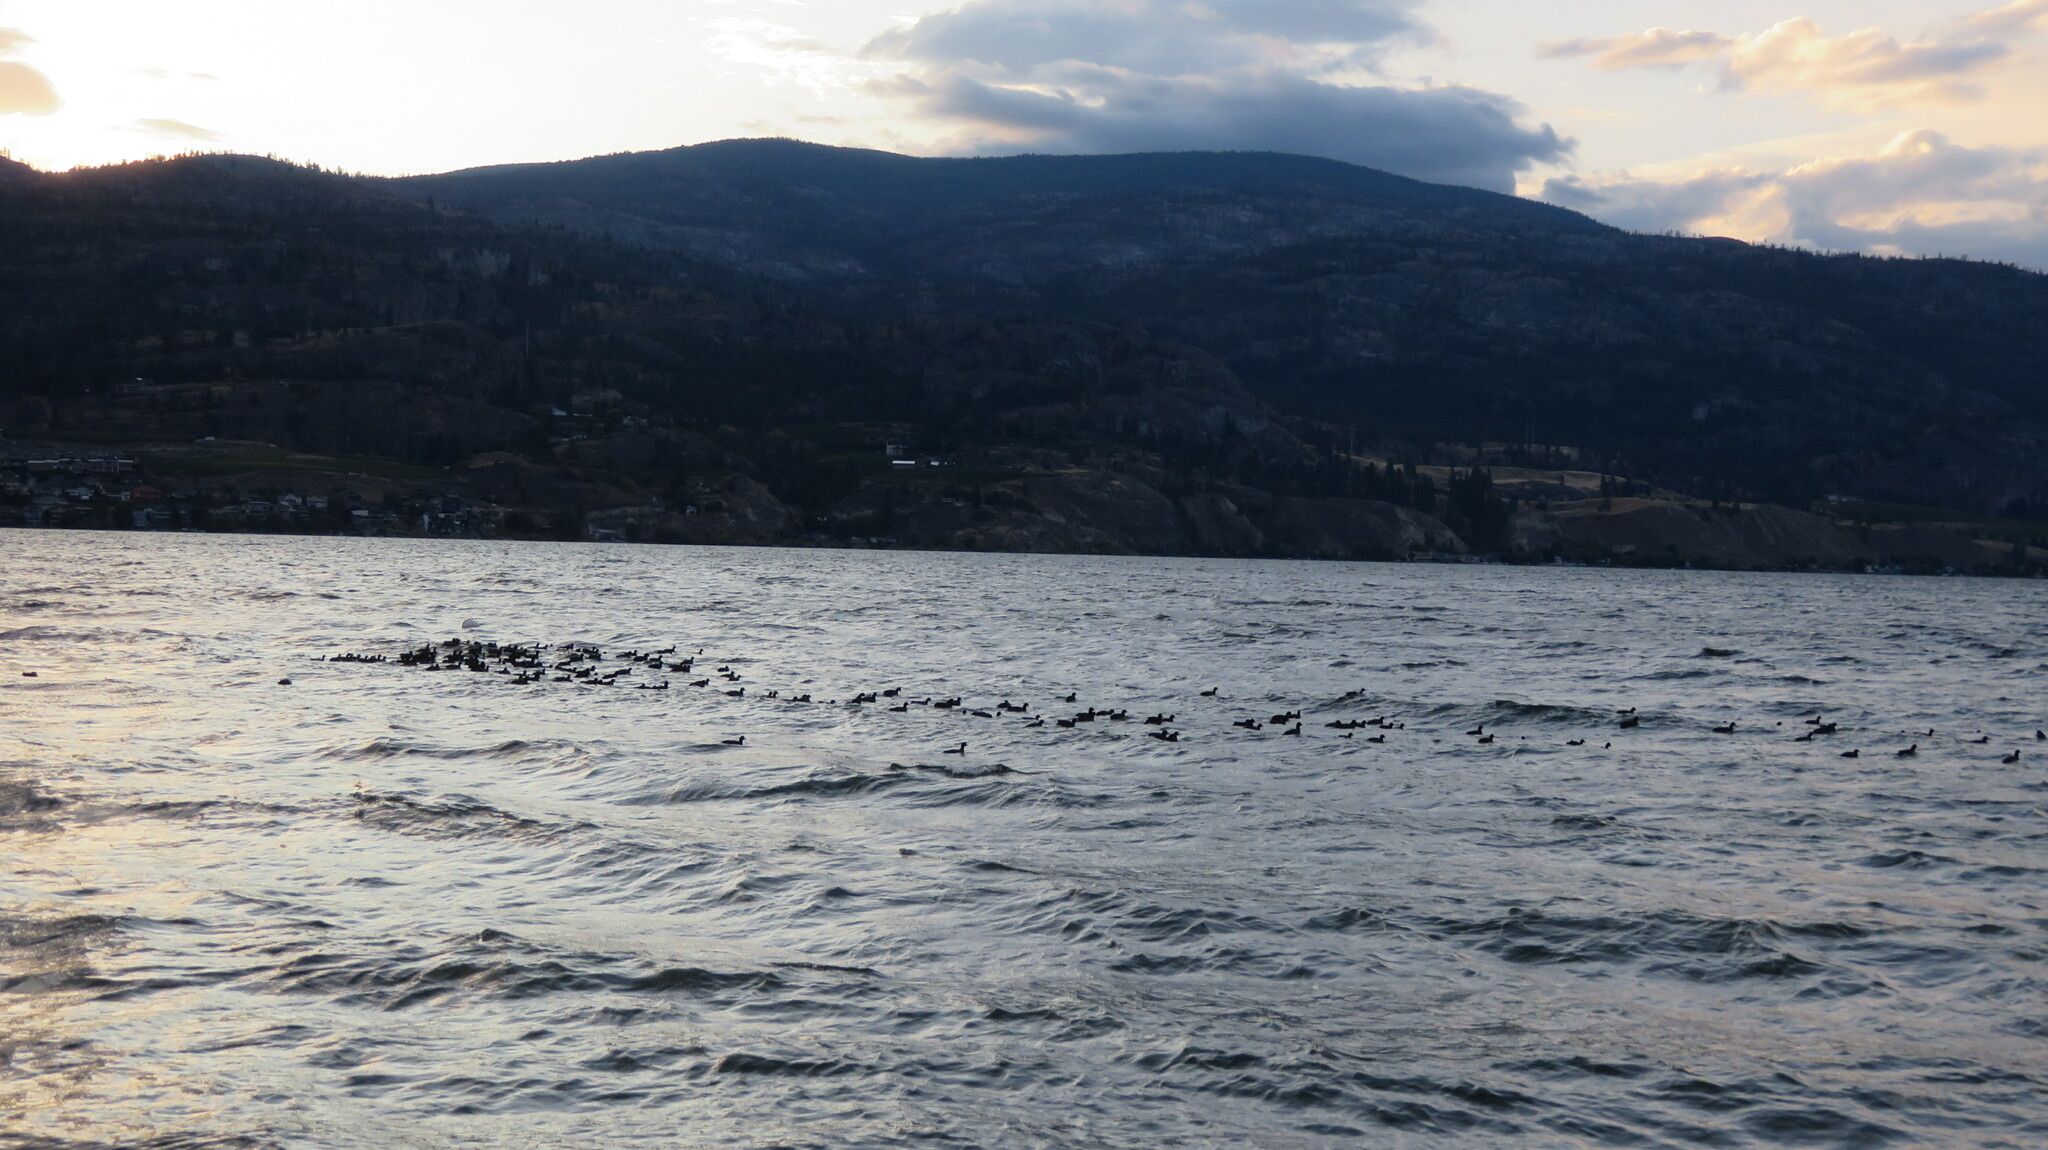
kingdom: Animalia
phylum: Chordata
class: Aves
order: Gruiformes
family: Rallidae
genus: Fulica
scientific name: Fulica americana
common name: American coot
